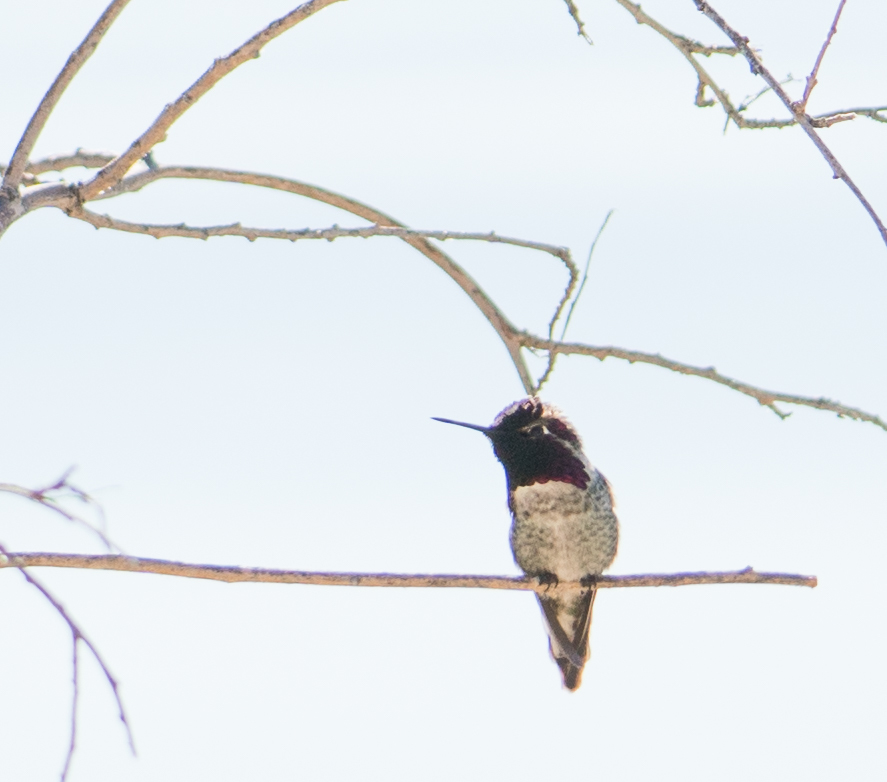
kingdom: Animalia
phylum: Chordata
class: Aves
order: Apodiformes
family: Trochilidae
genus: Calypte
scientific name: Calypte
